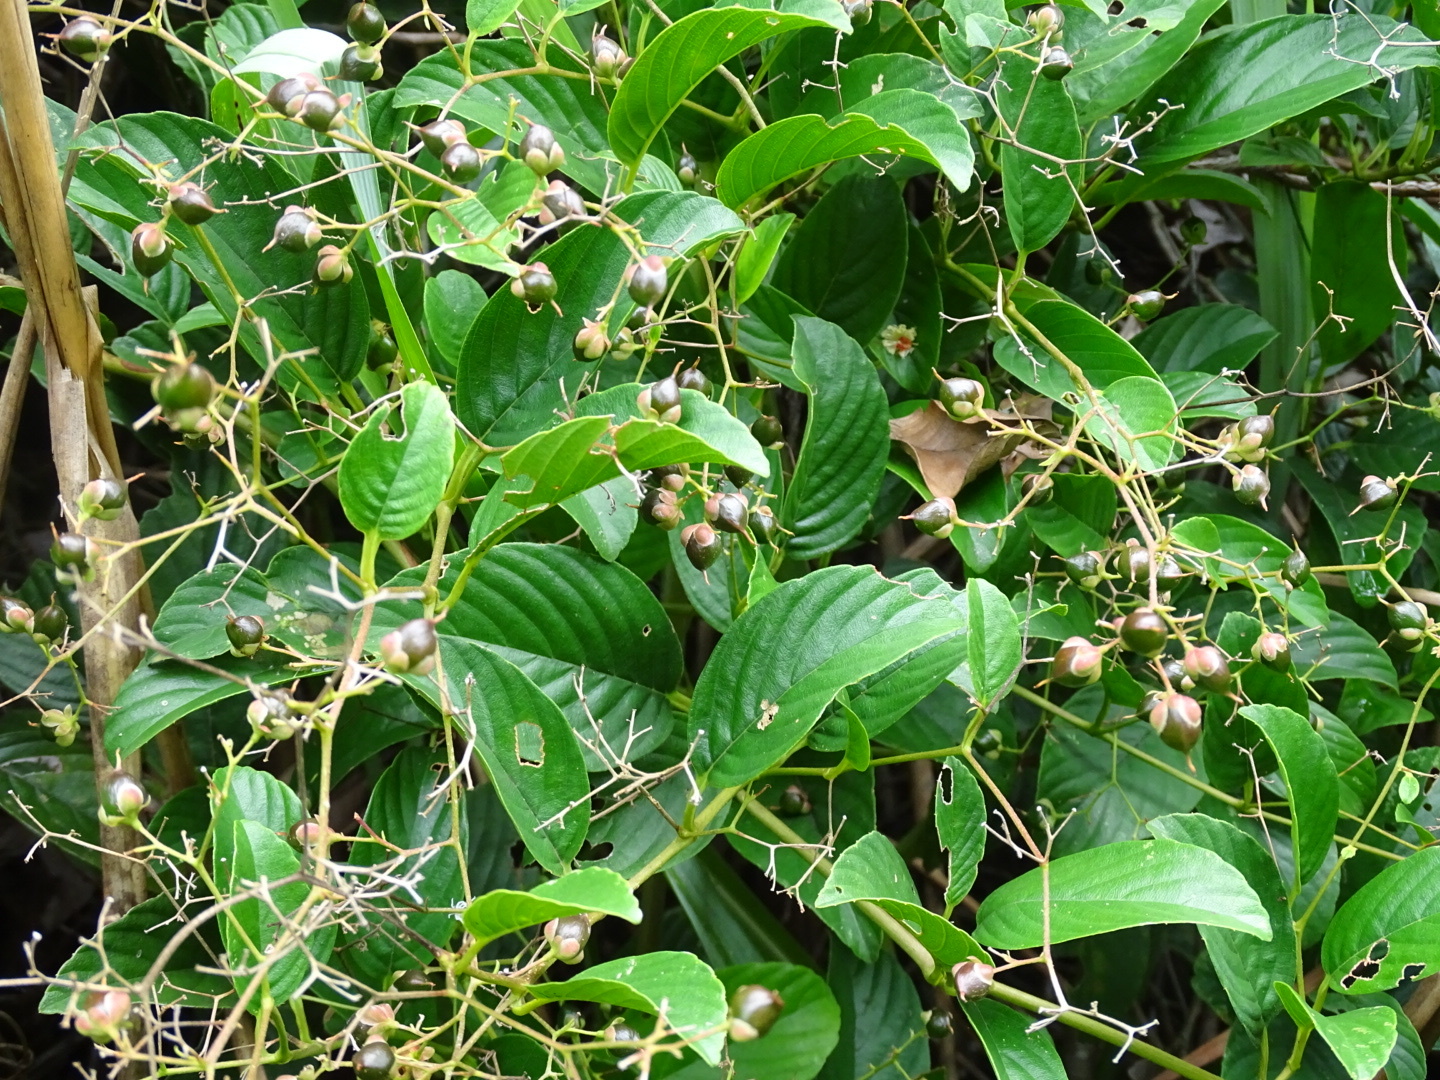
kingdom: Plantae
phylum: Tracheophyta
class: Magnoliopsida
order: Dilleniales
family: Dilleniaceae
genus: Tetracera
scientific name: Tetracera sarmentosa
